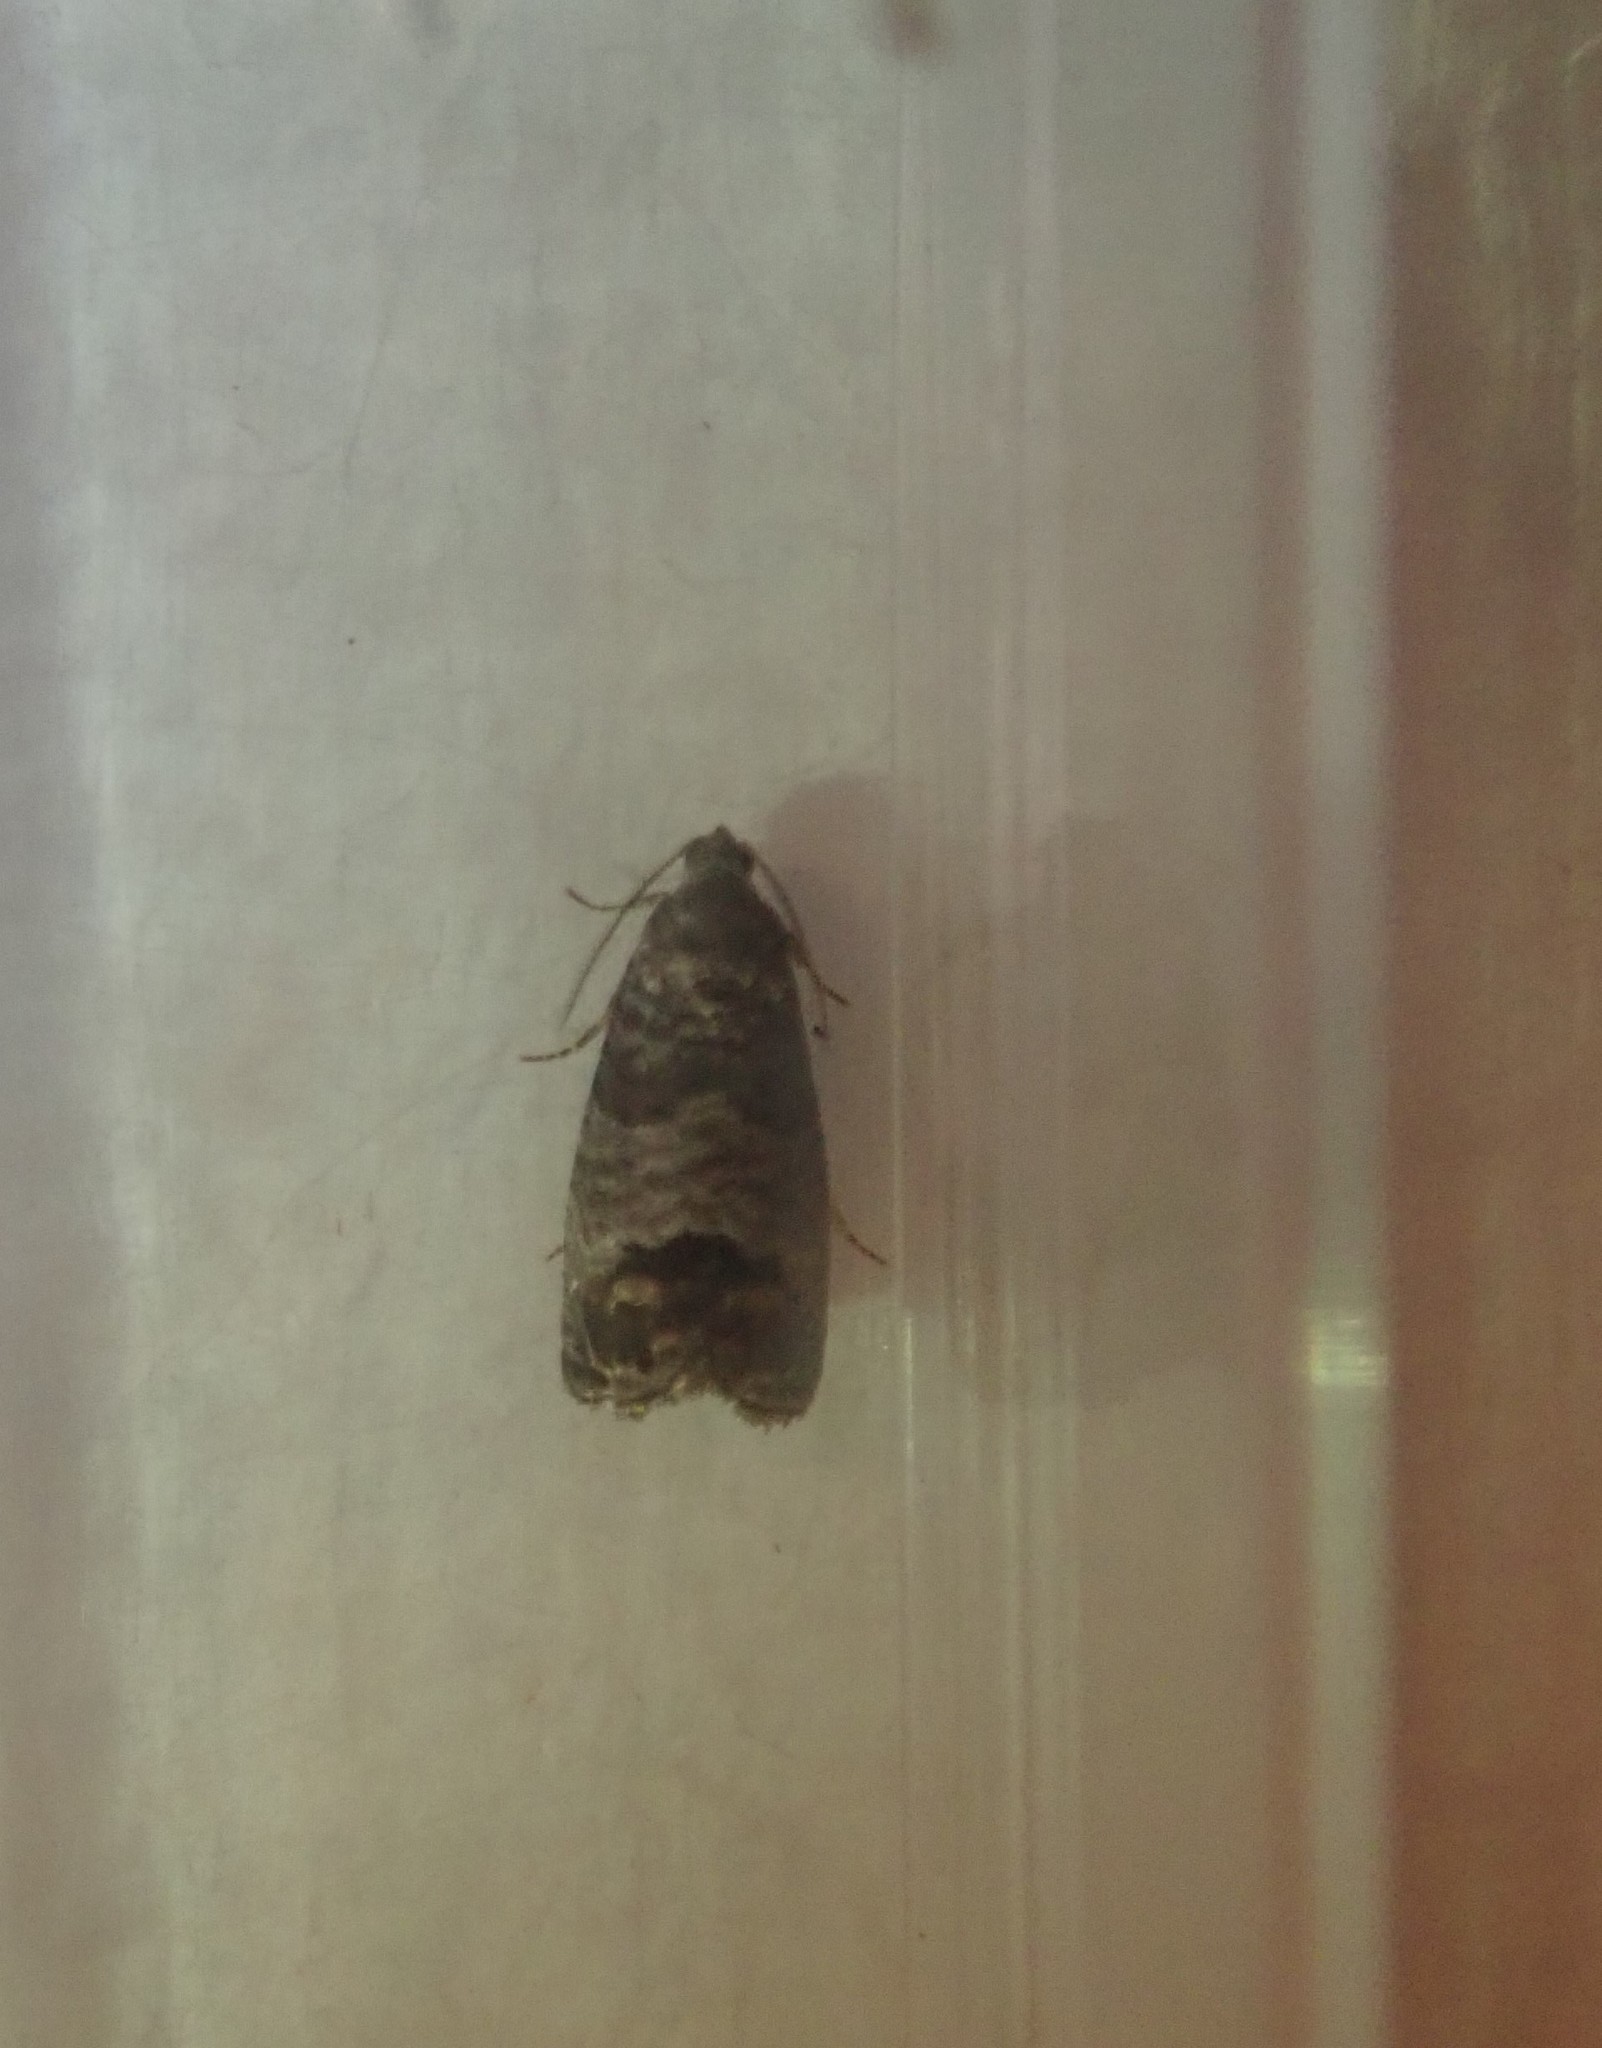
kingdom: Animalia
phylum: Arthropoda
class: Insecta
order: Lepidoptera
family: Tortricidae
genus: Cydia
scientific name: Cydia pomonella
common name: Codling moth
